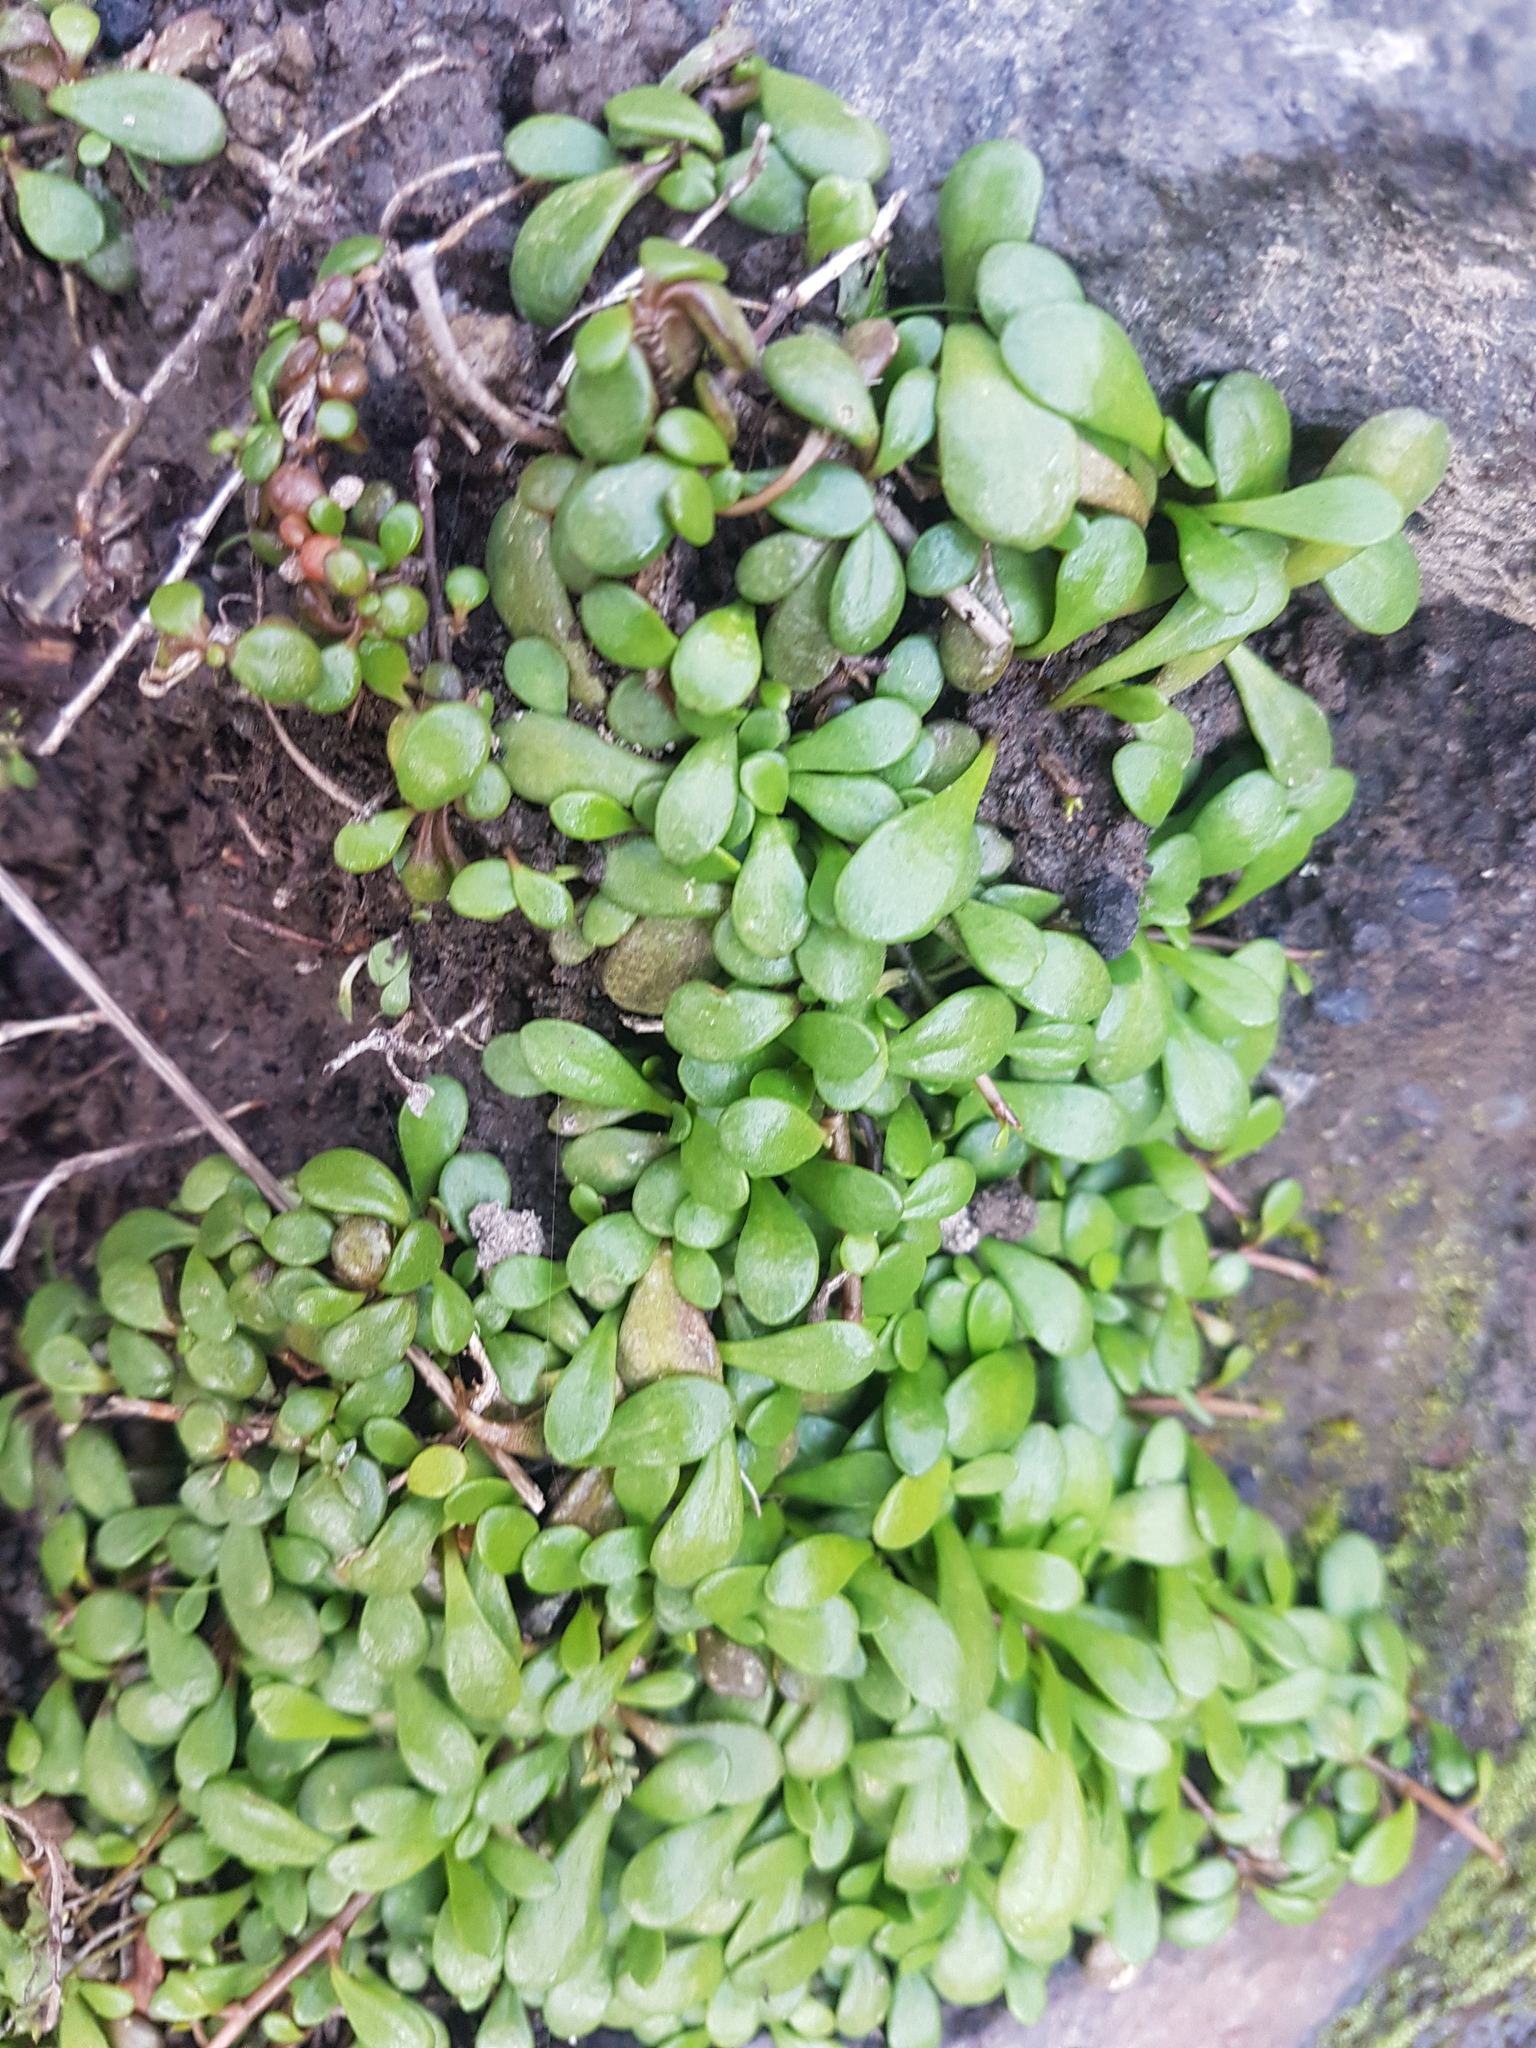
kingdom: Plantae
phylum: Tracheophyta
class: Magnoliopsida
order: Asterales
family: Goodeniaceae
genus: Goodenia
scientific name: Goodenia radicans
